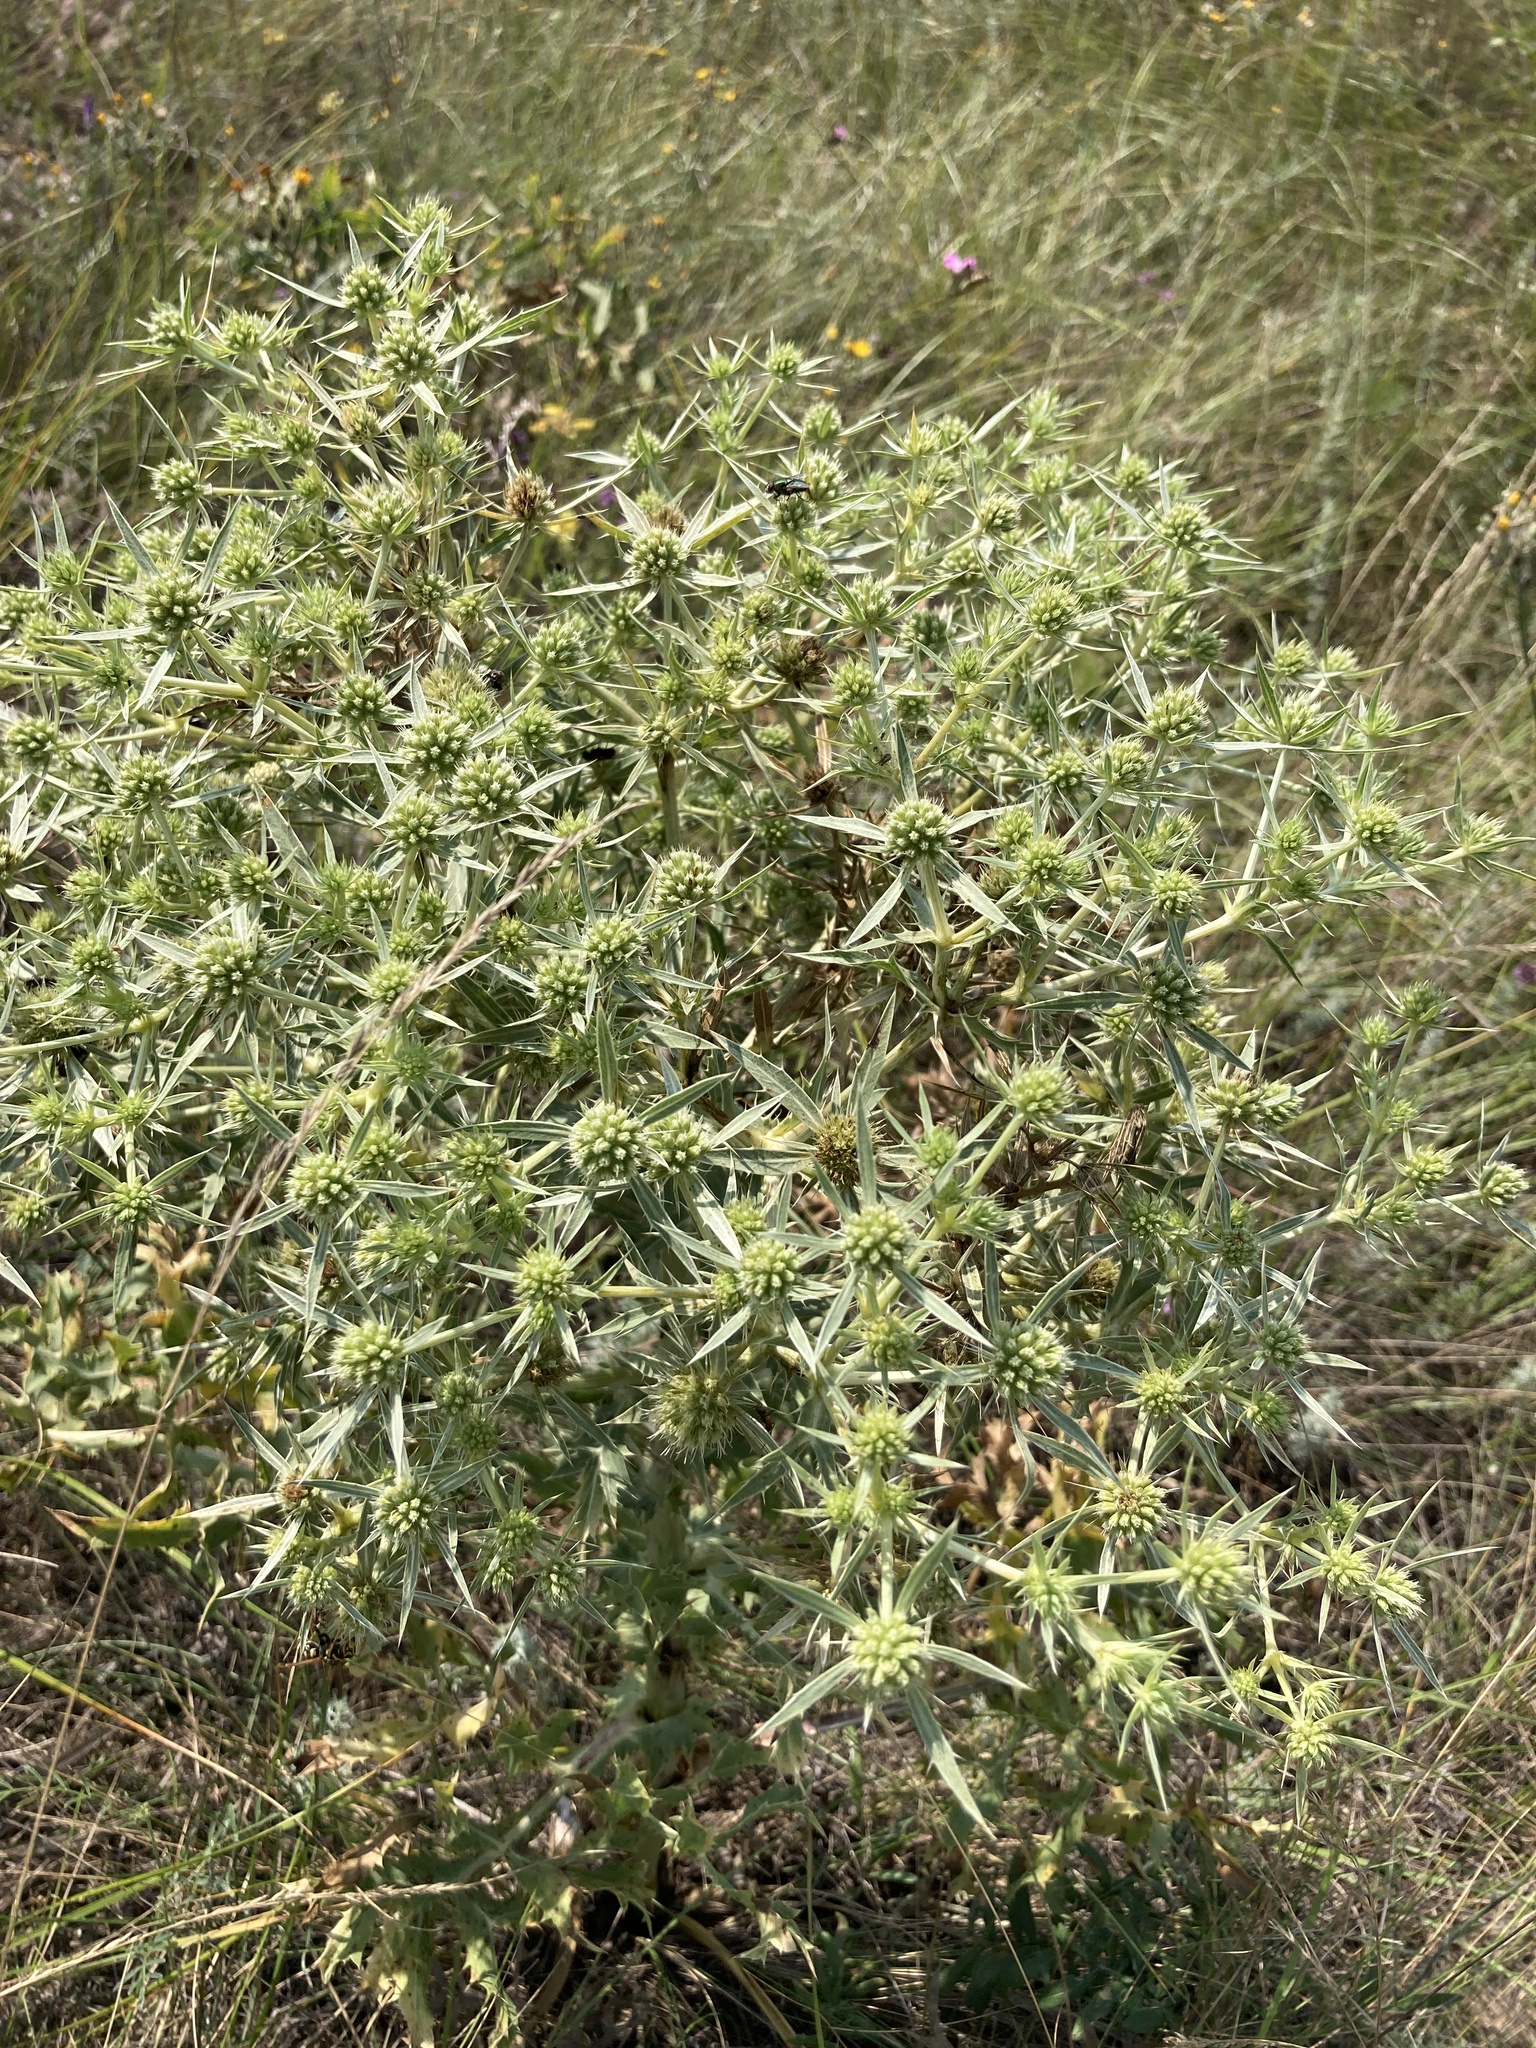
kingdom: Plantae
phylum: Tracheophyta
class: Magnoliopsida
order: Apiales
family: Apiaceae
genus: Eryngium
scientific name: Eryngium campestre
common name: Field eryngo
